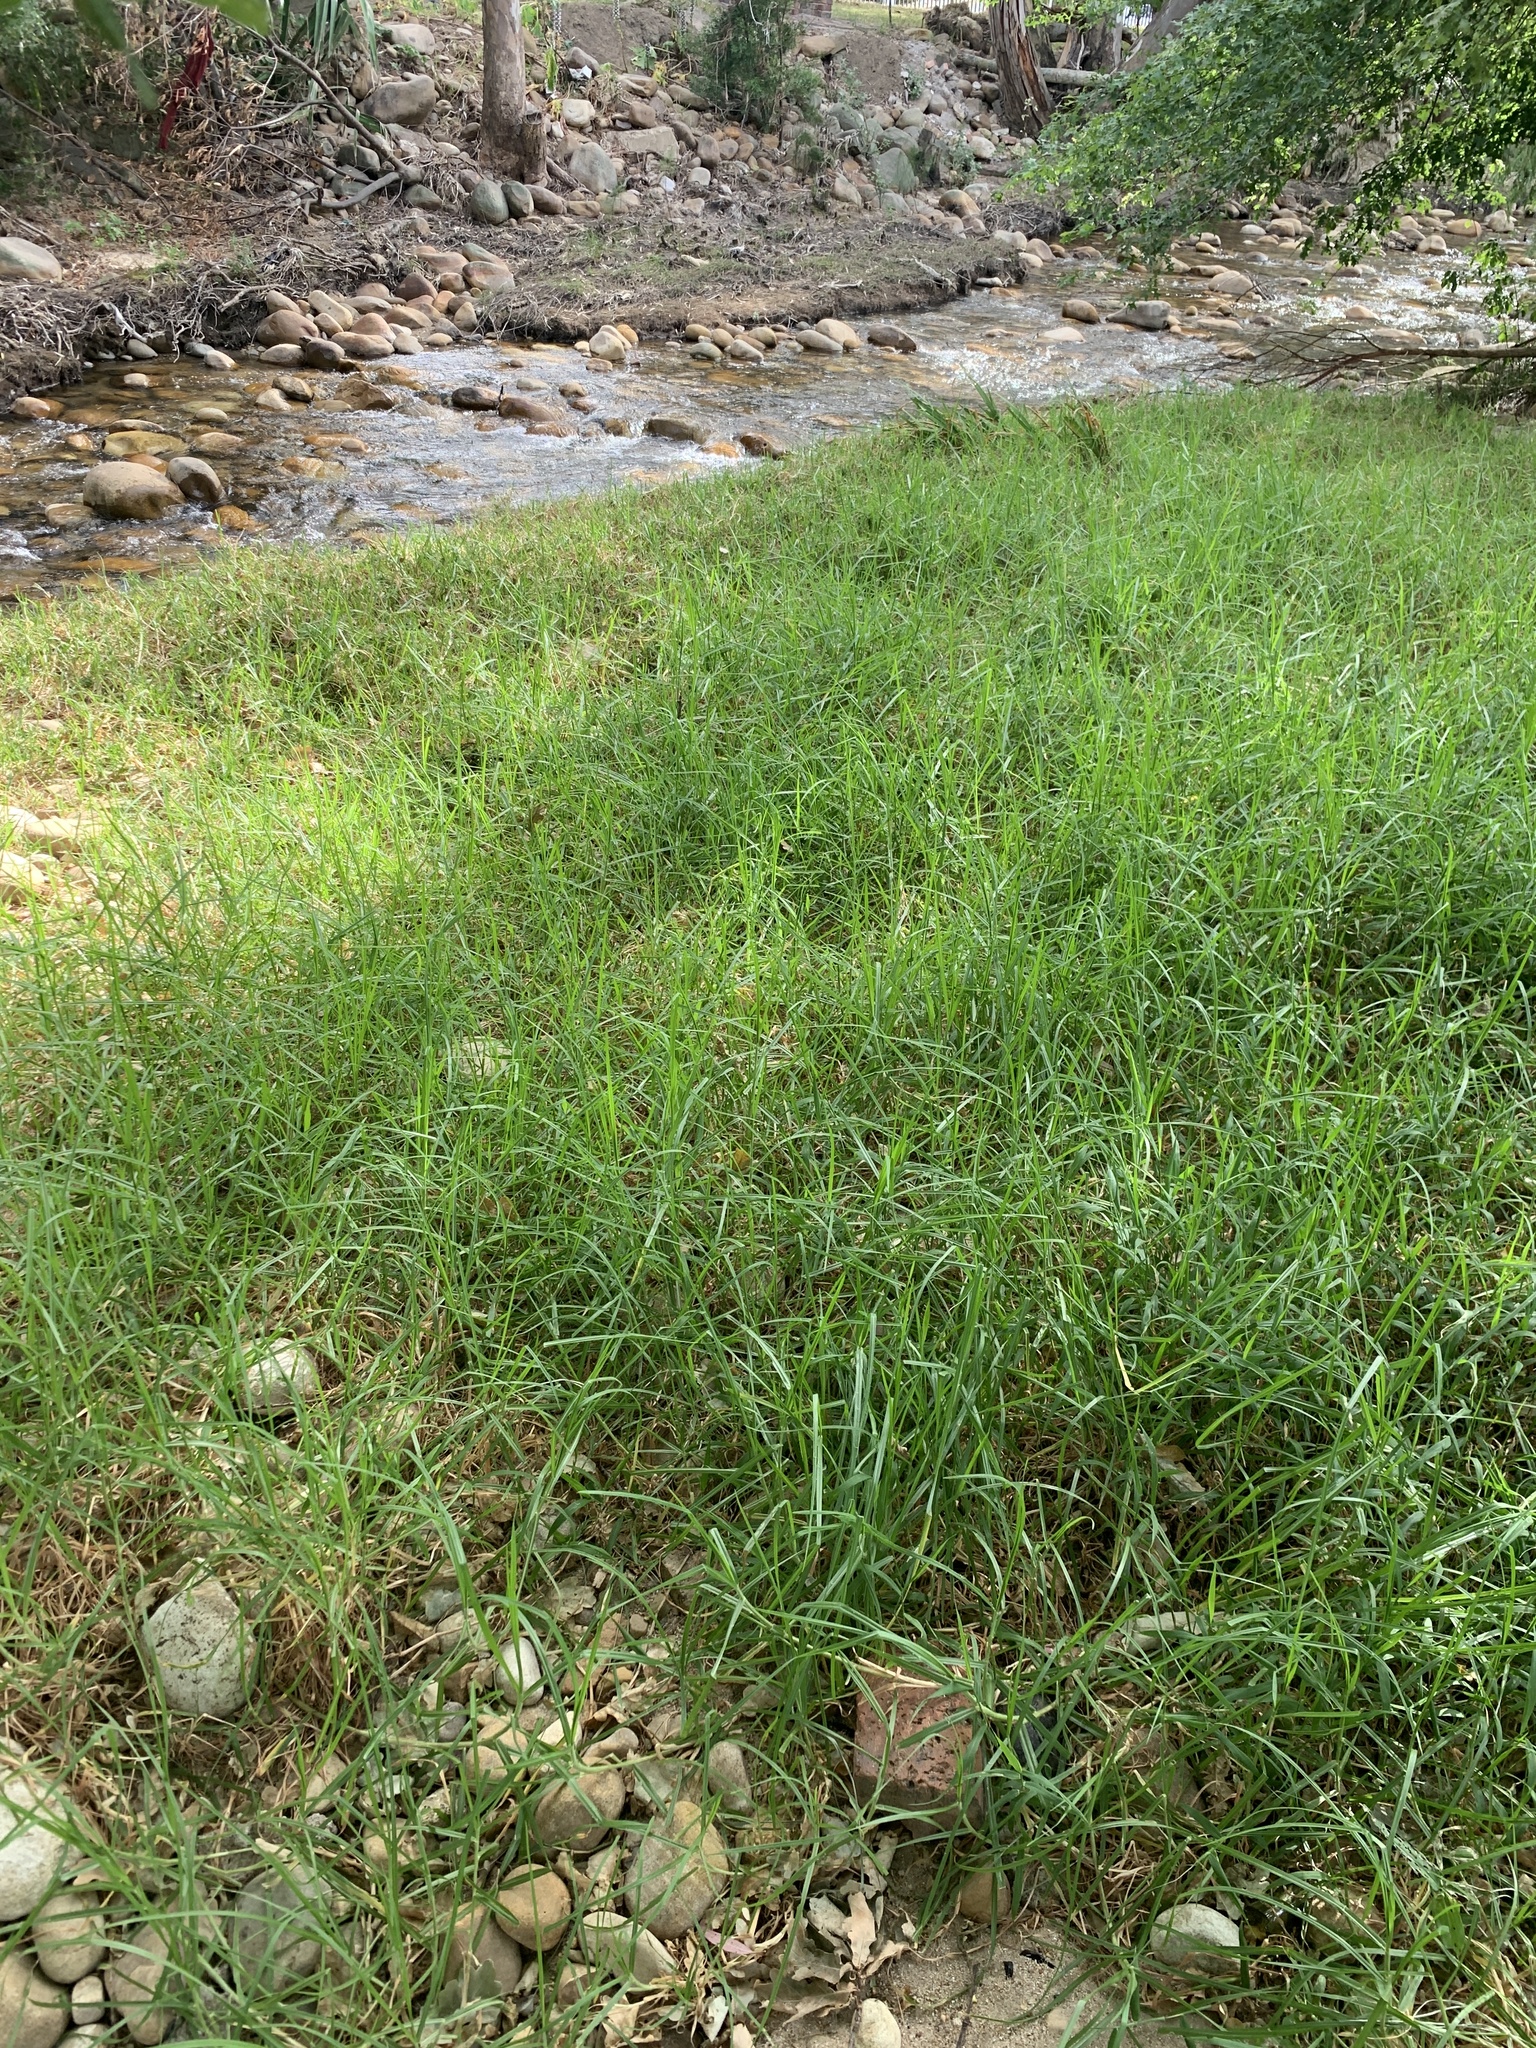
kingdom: Plantae
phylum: Tracheophyta
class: Liliopsida
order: Poales
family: Poaceae
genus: Cenchrus
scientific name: Cenchrus clandestinus
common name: Kikuyugrass
